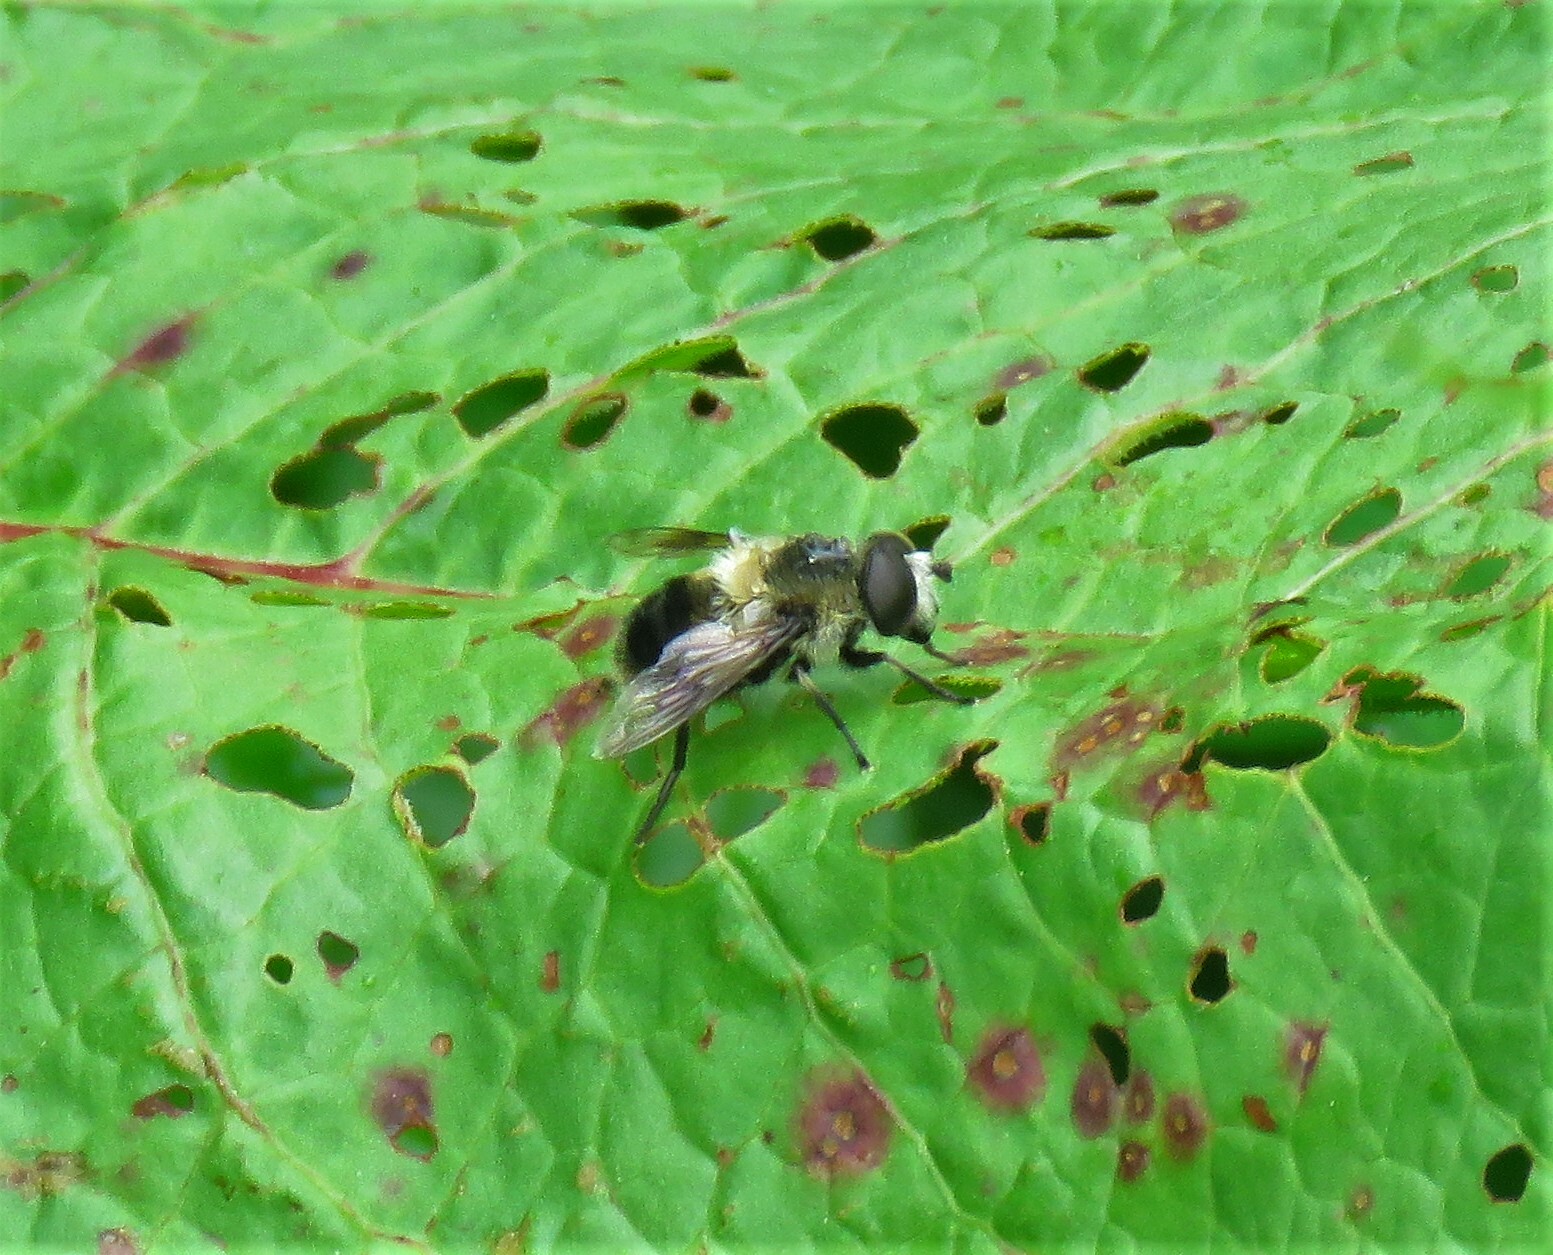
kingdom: Animalia
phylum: Arthropoda
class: Insecta
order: Diptera
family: Syrphidae
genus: Eristalis
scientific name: Eristalis anthophorina
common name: Orange-spotted drone fly
